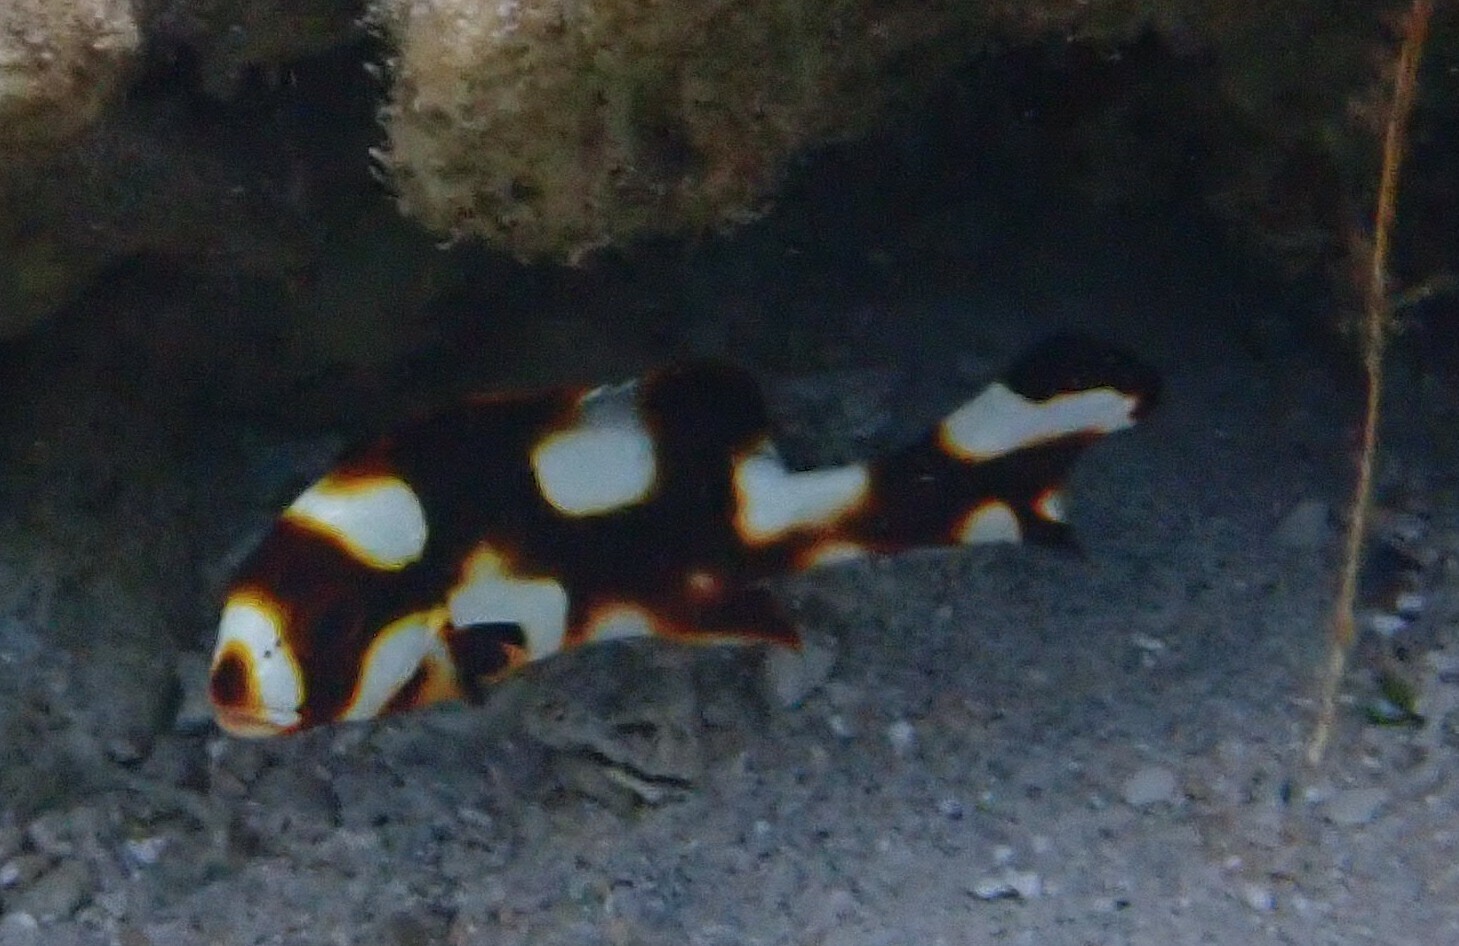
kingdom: Animalia
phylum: Chordata
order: Perciformes
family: Haemulidae
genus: Plectorhinchus
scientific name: Plectorhinchus vittatus
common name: Oriental sweetlips
